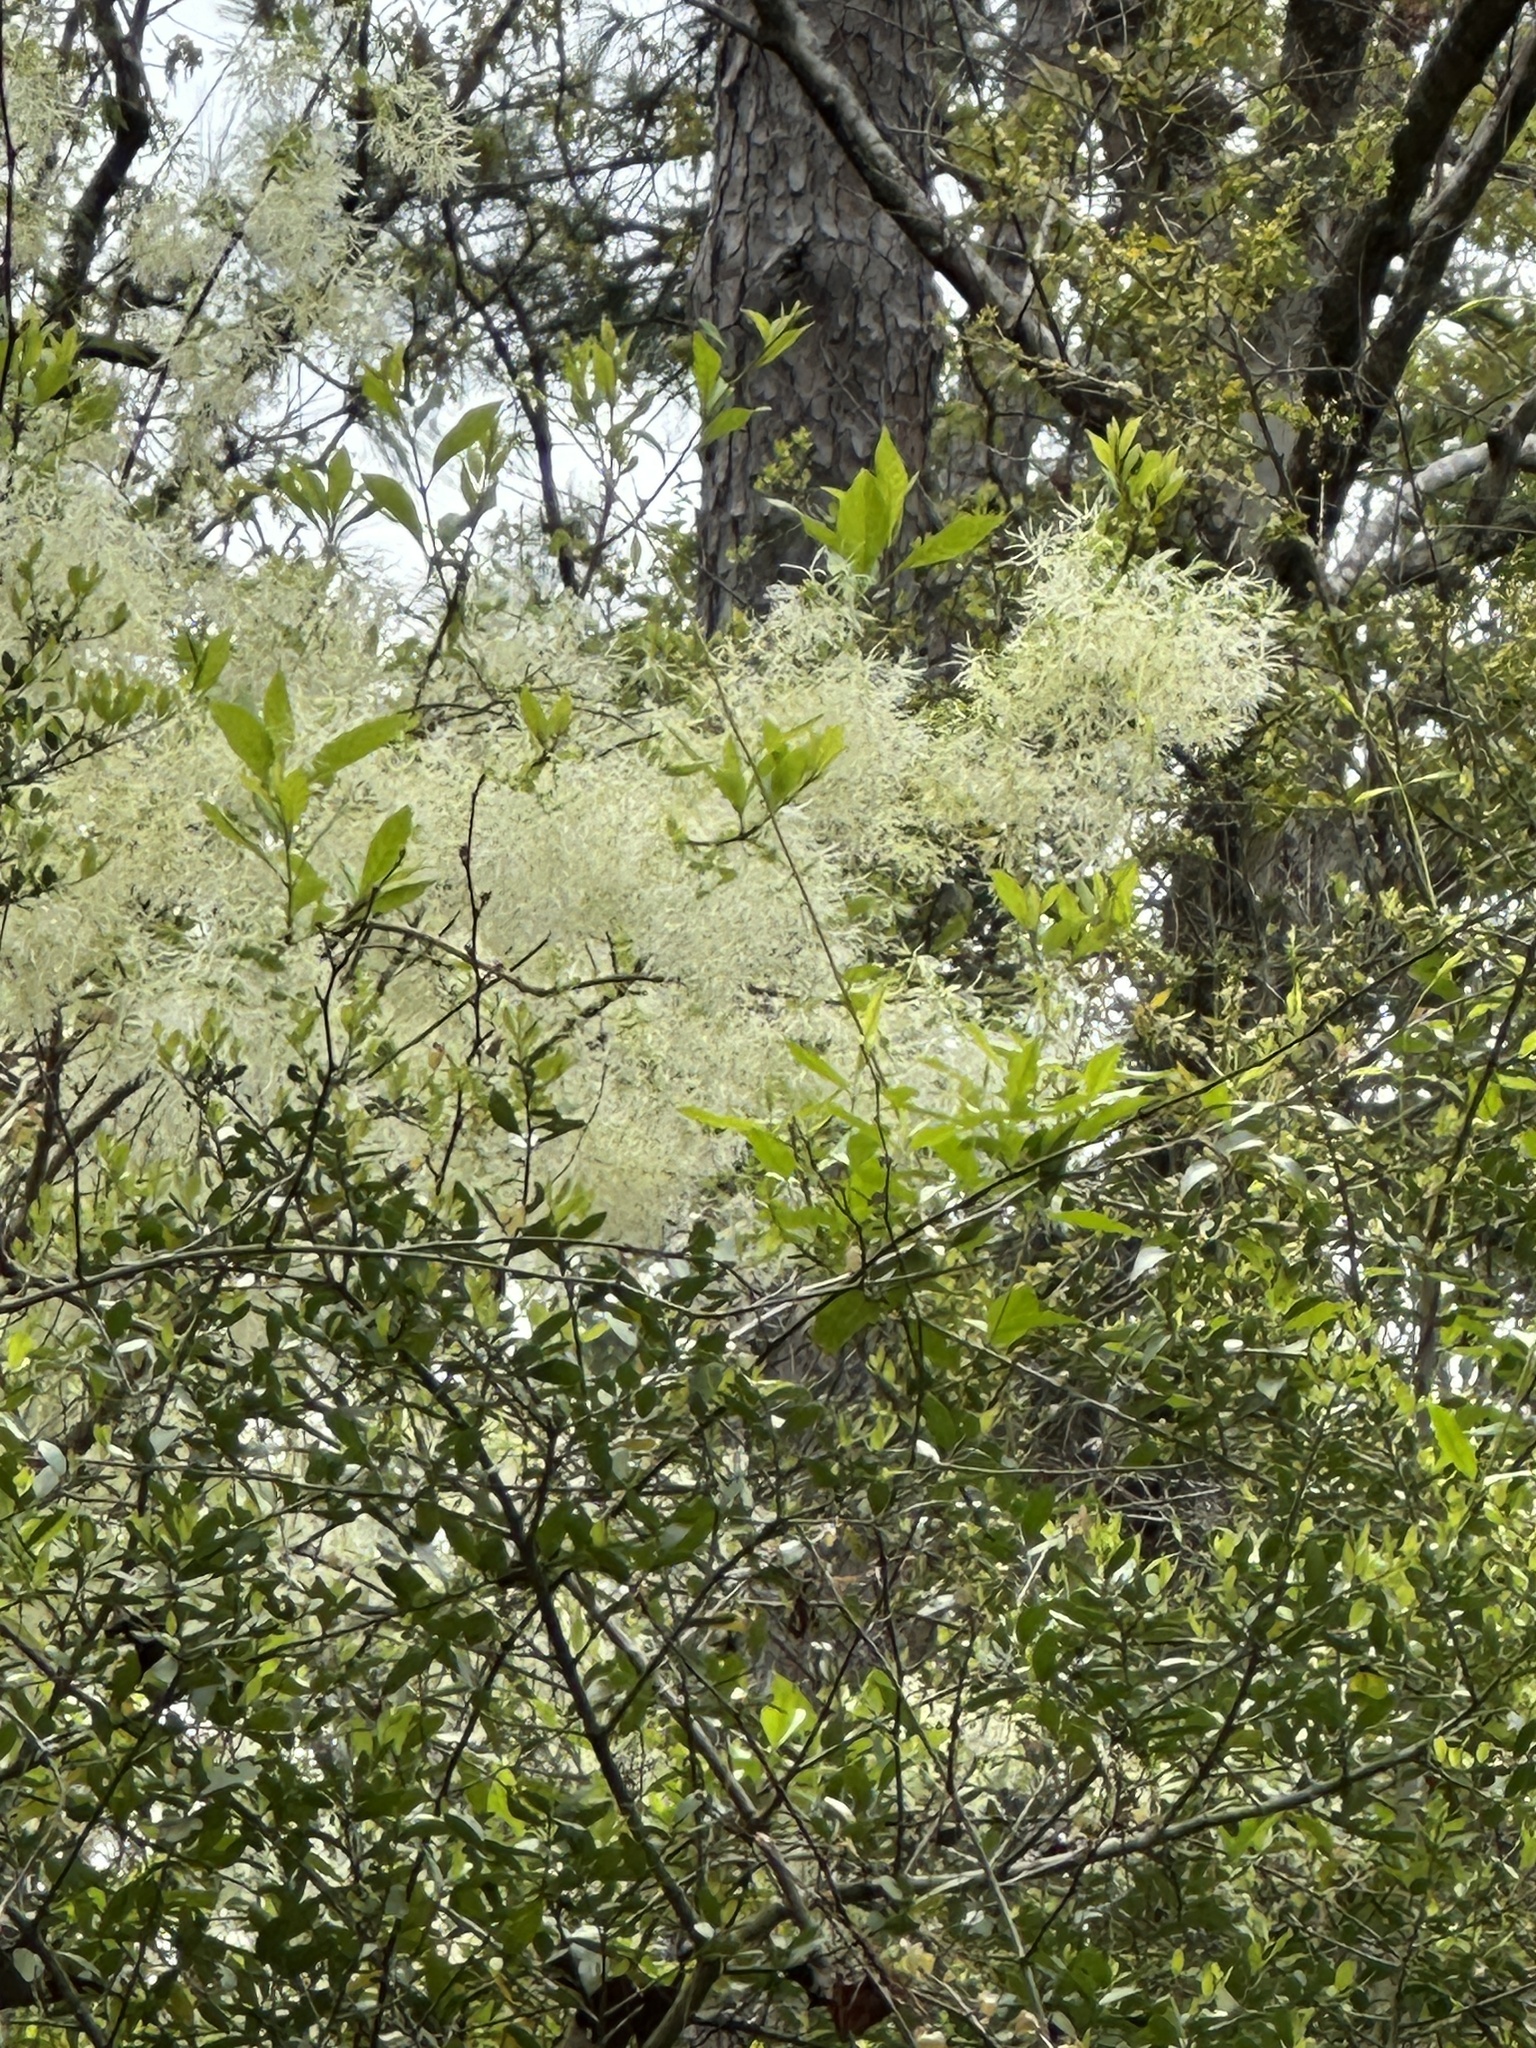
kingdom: Plantae
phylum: Tracheophyta
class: Magnoliopsida
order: Lamiales
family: Oleaceae
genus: Chionanthus
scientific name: Chionanthus virginicus
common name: American fringetree
